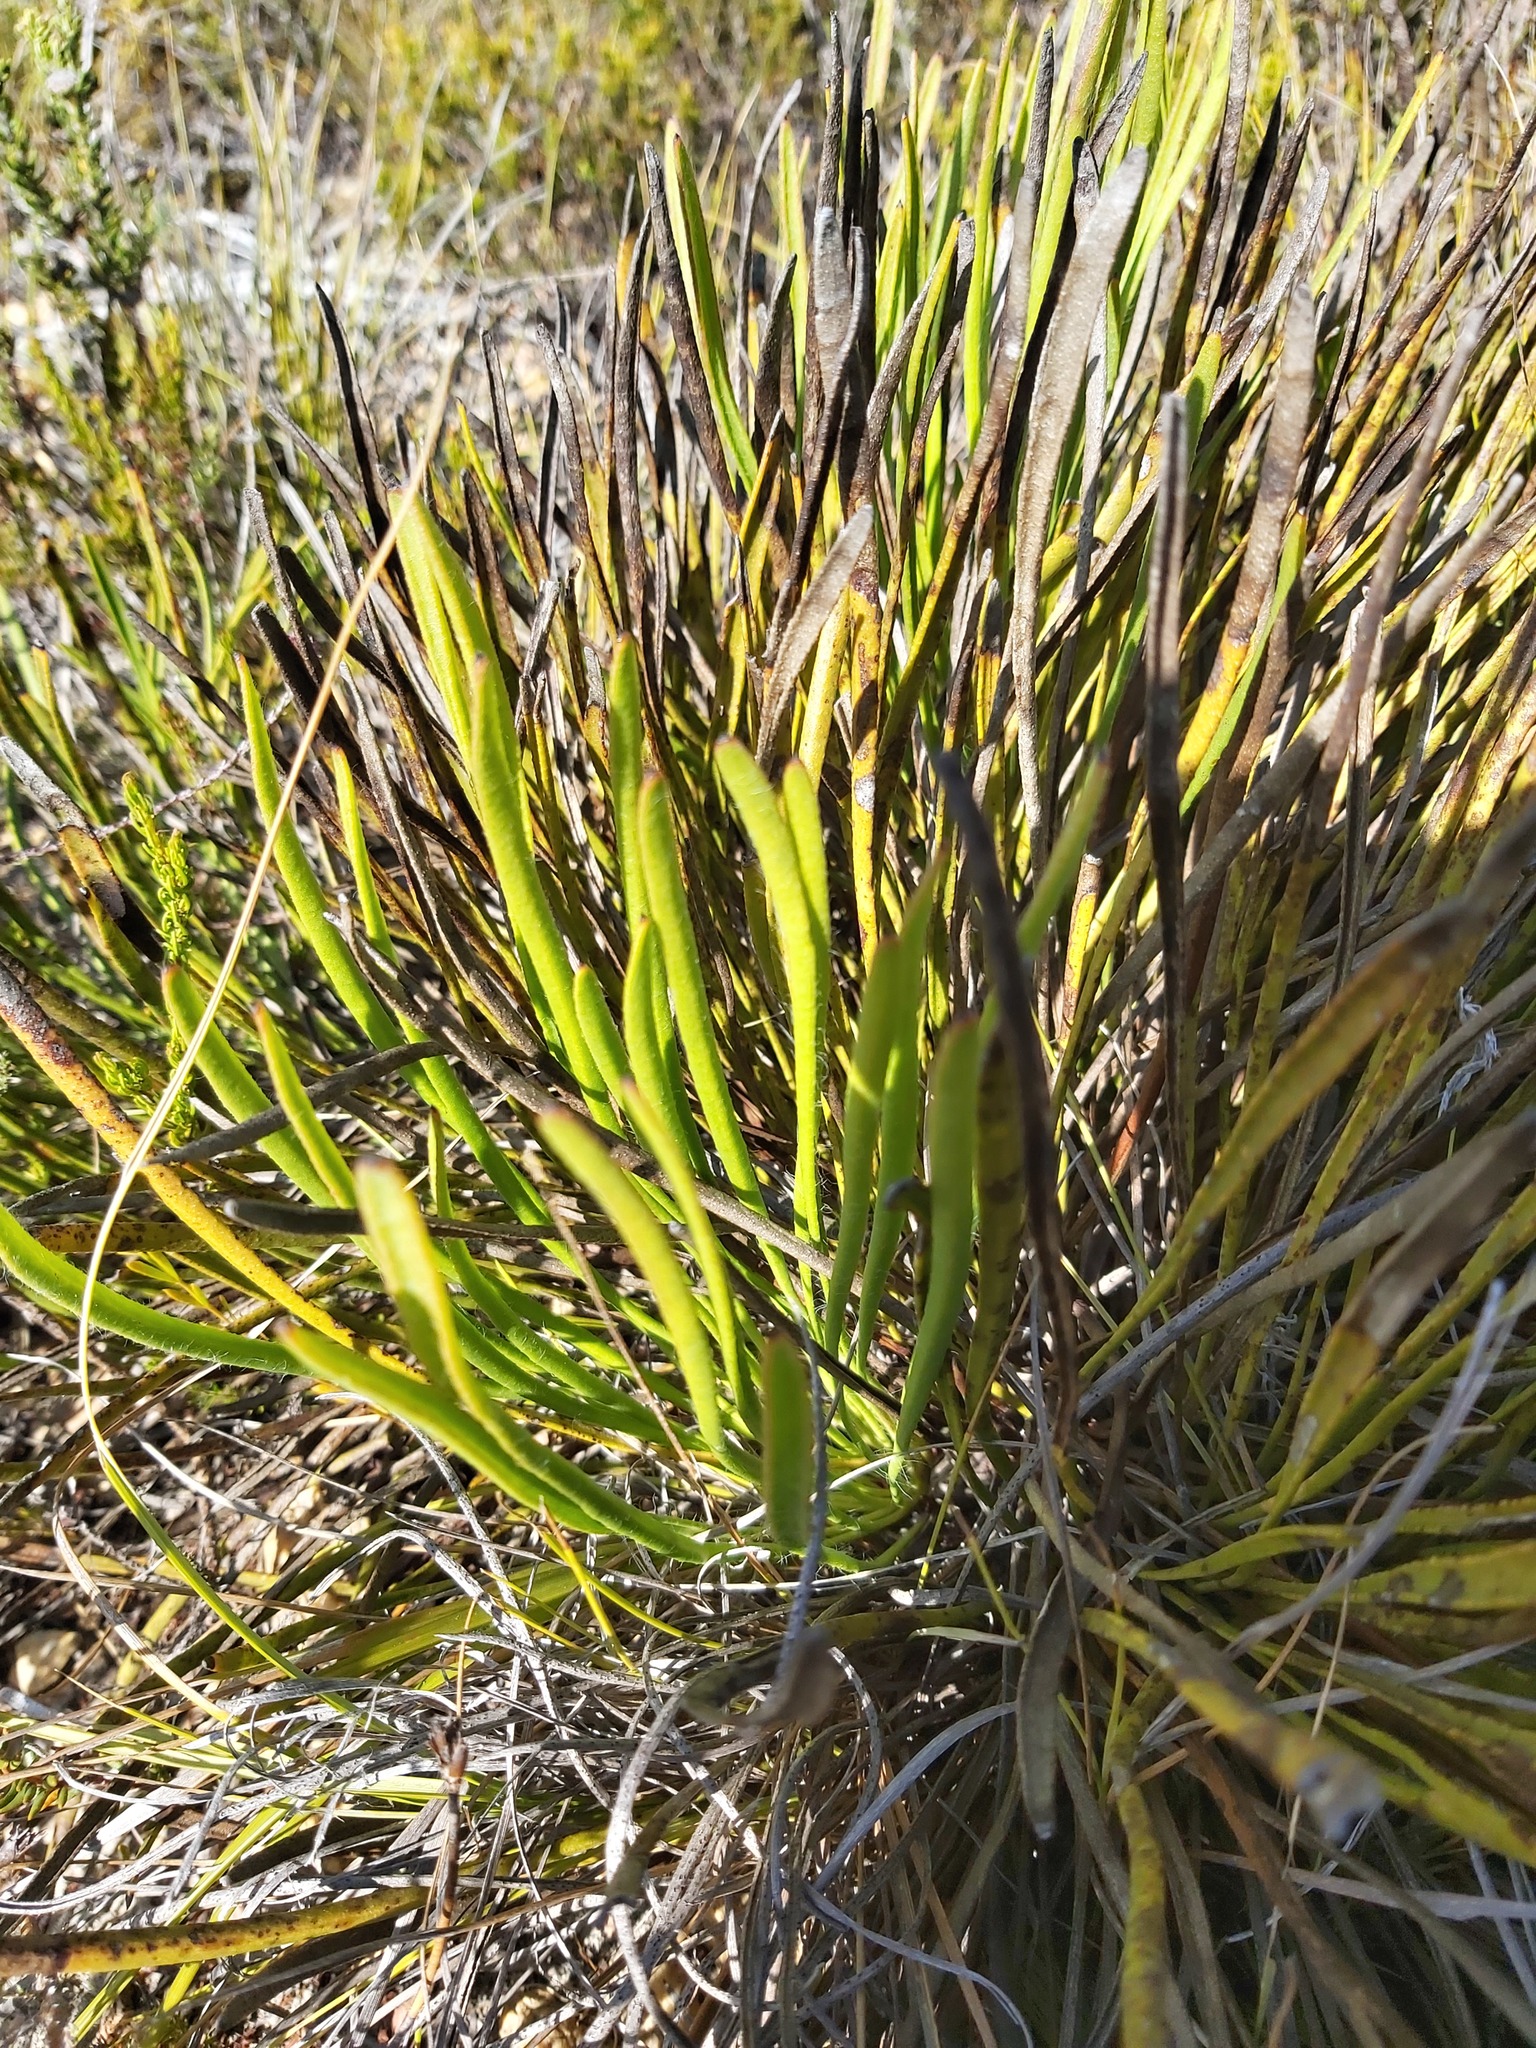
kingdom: Plantae
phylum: Tracheophyta
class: Magnoliopsida
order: Proteales
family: Proteaceae
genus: Protea
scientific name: Protea scabra
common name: Sandpaper-leaf sugarbush
